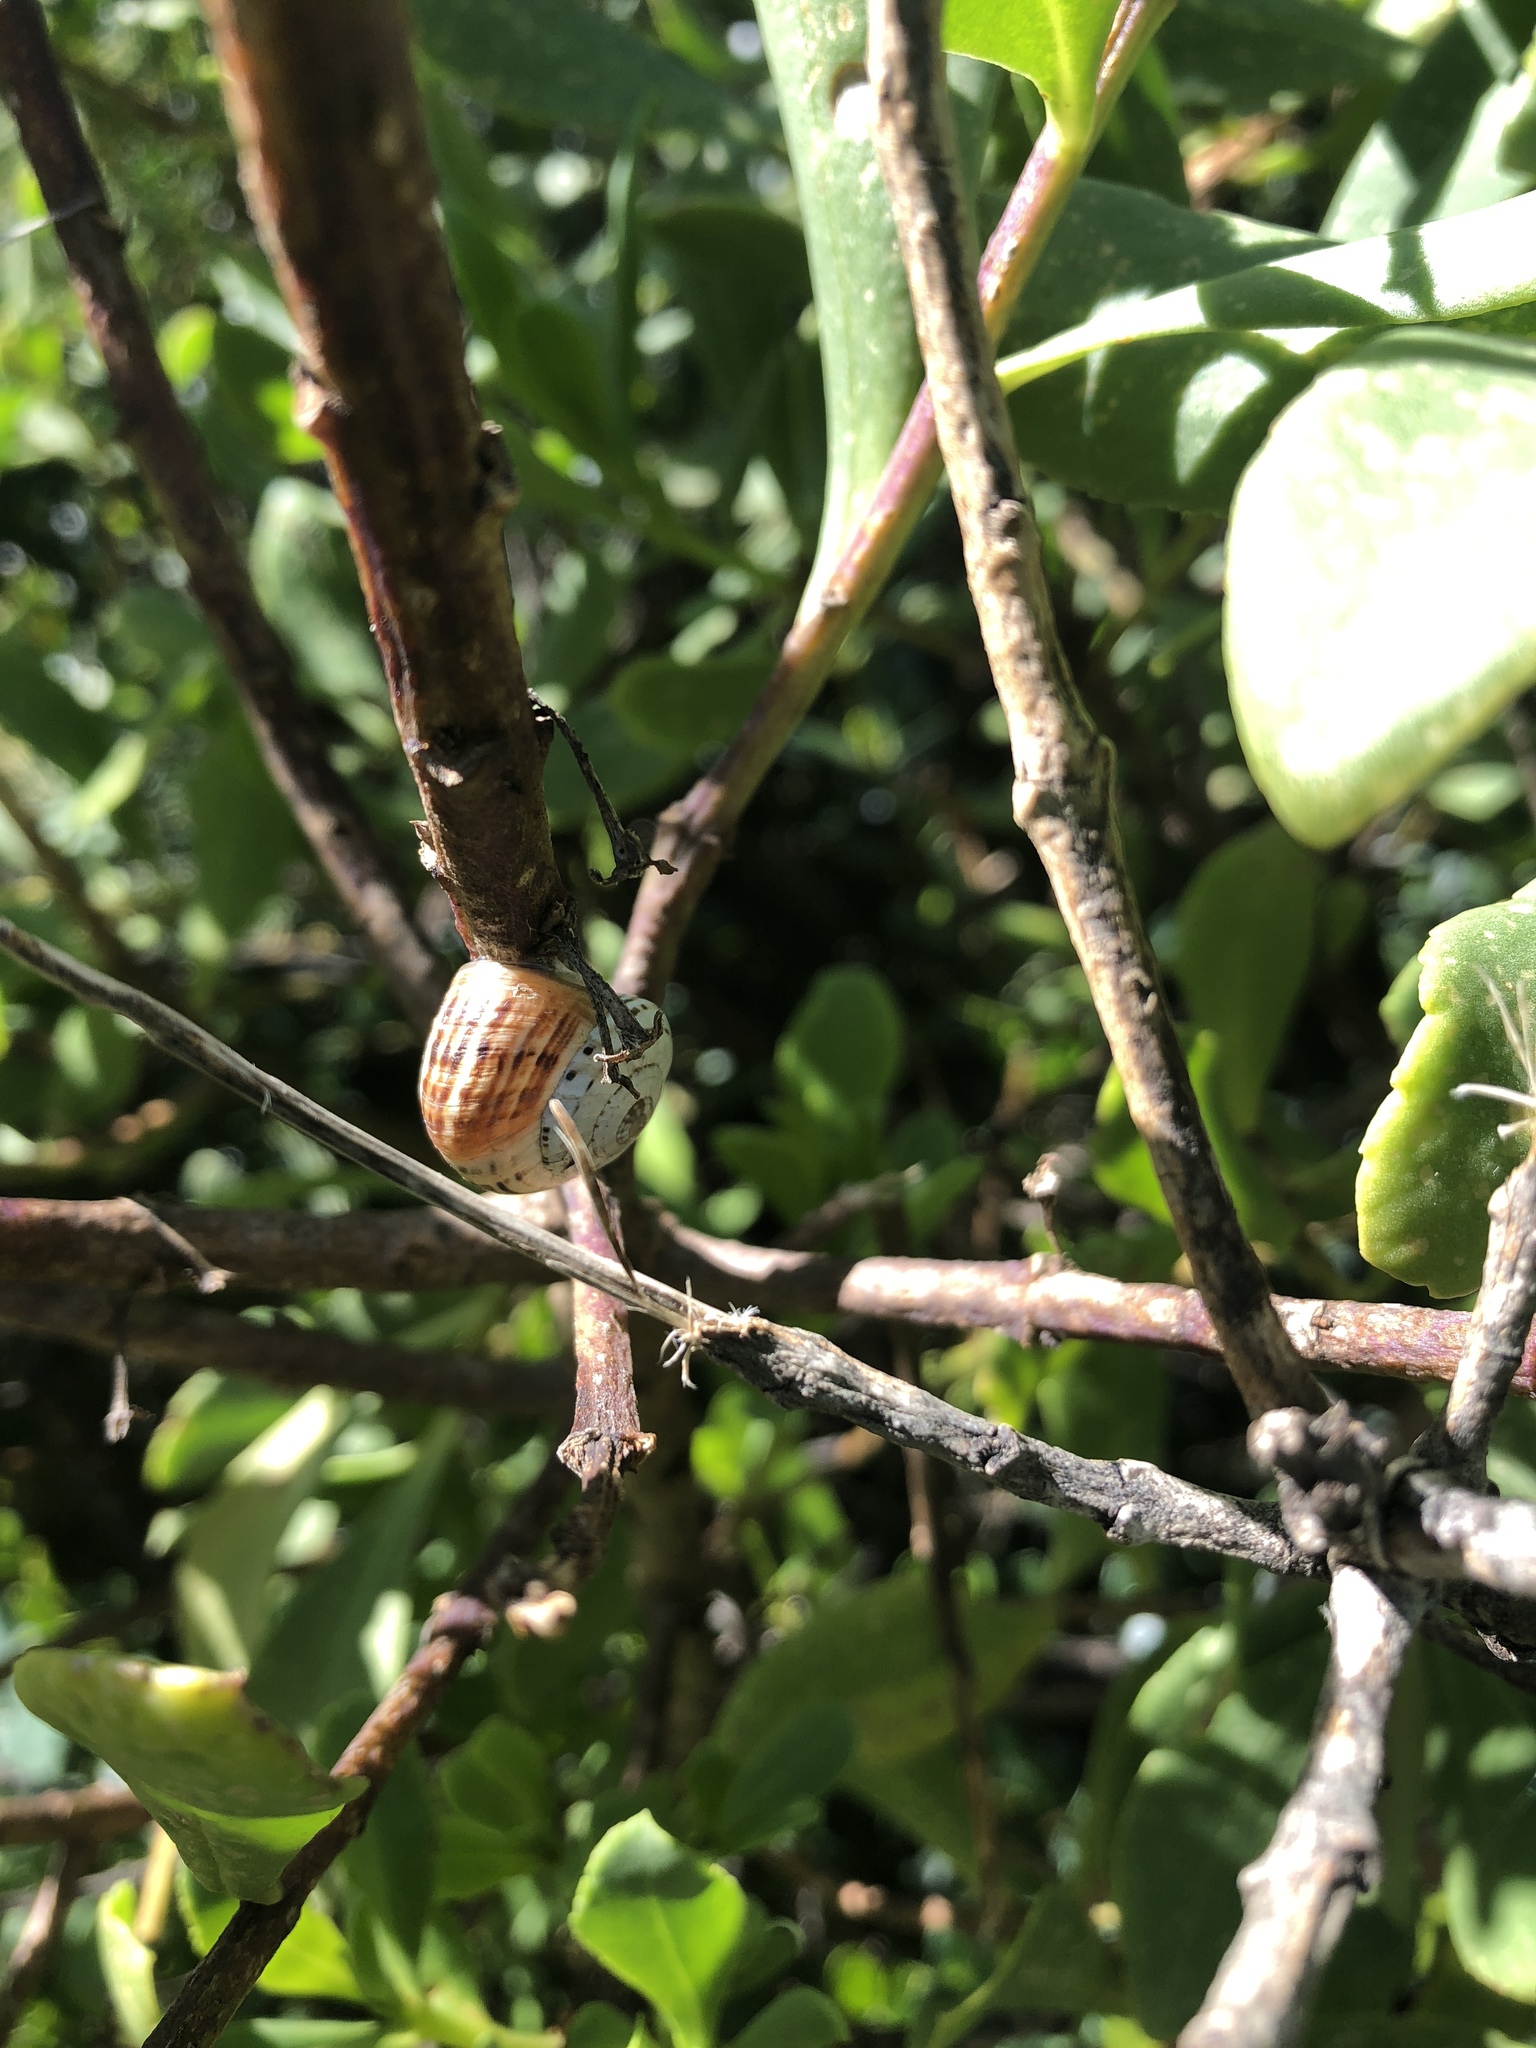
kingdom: Animalia
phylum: Mollusca
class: Gastropoda
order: Stylommatophora
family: Helicidae
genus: Theba
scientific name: Theba pisana
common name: White snail
